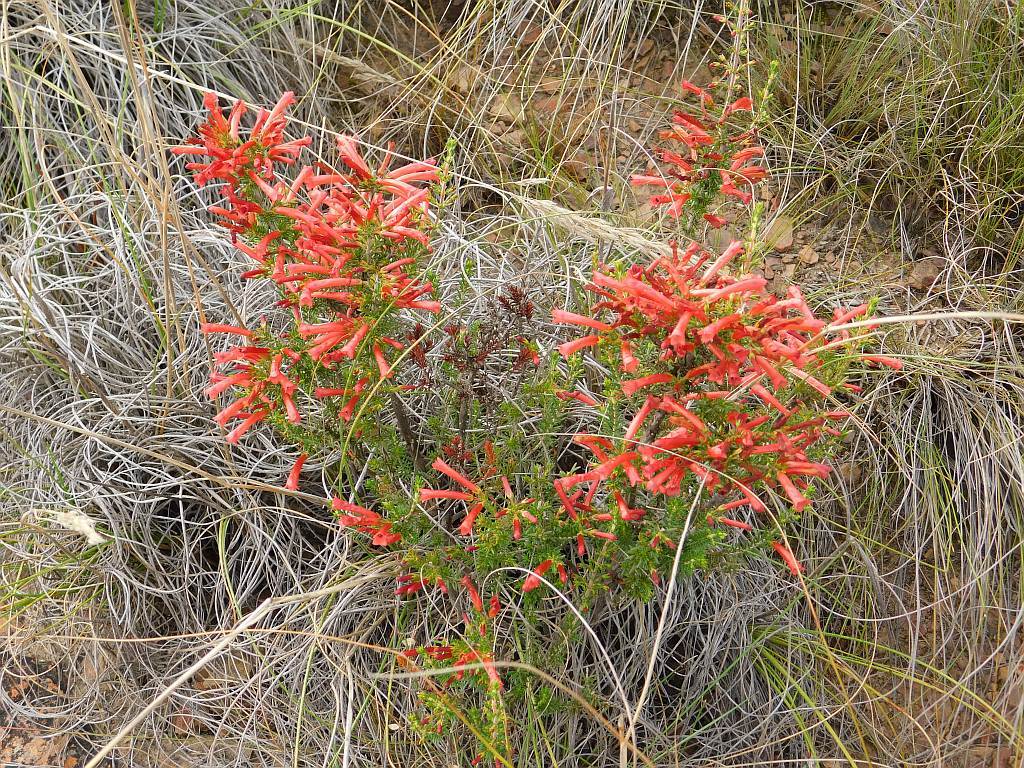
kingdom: Plantae
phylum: Tracheophyta
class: Magnoliopsida
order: Ericales
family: Ericaceae
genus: Erica
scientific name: Erica cruenta
